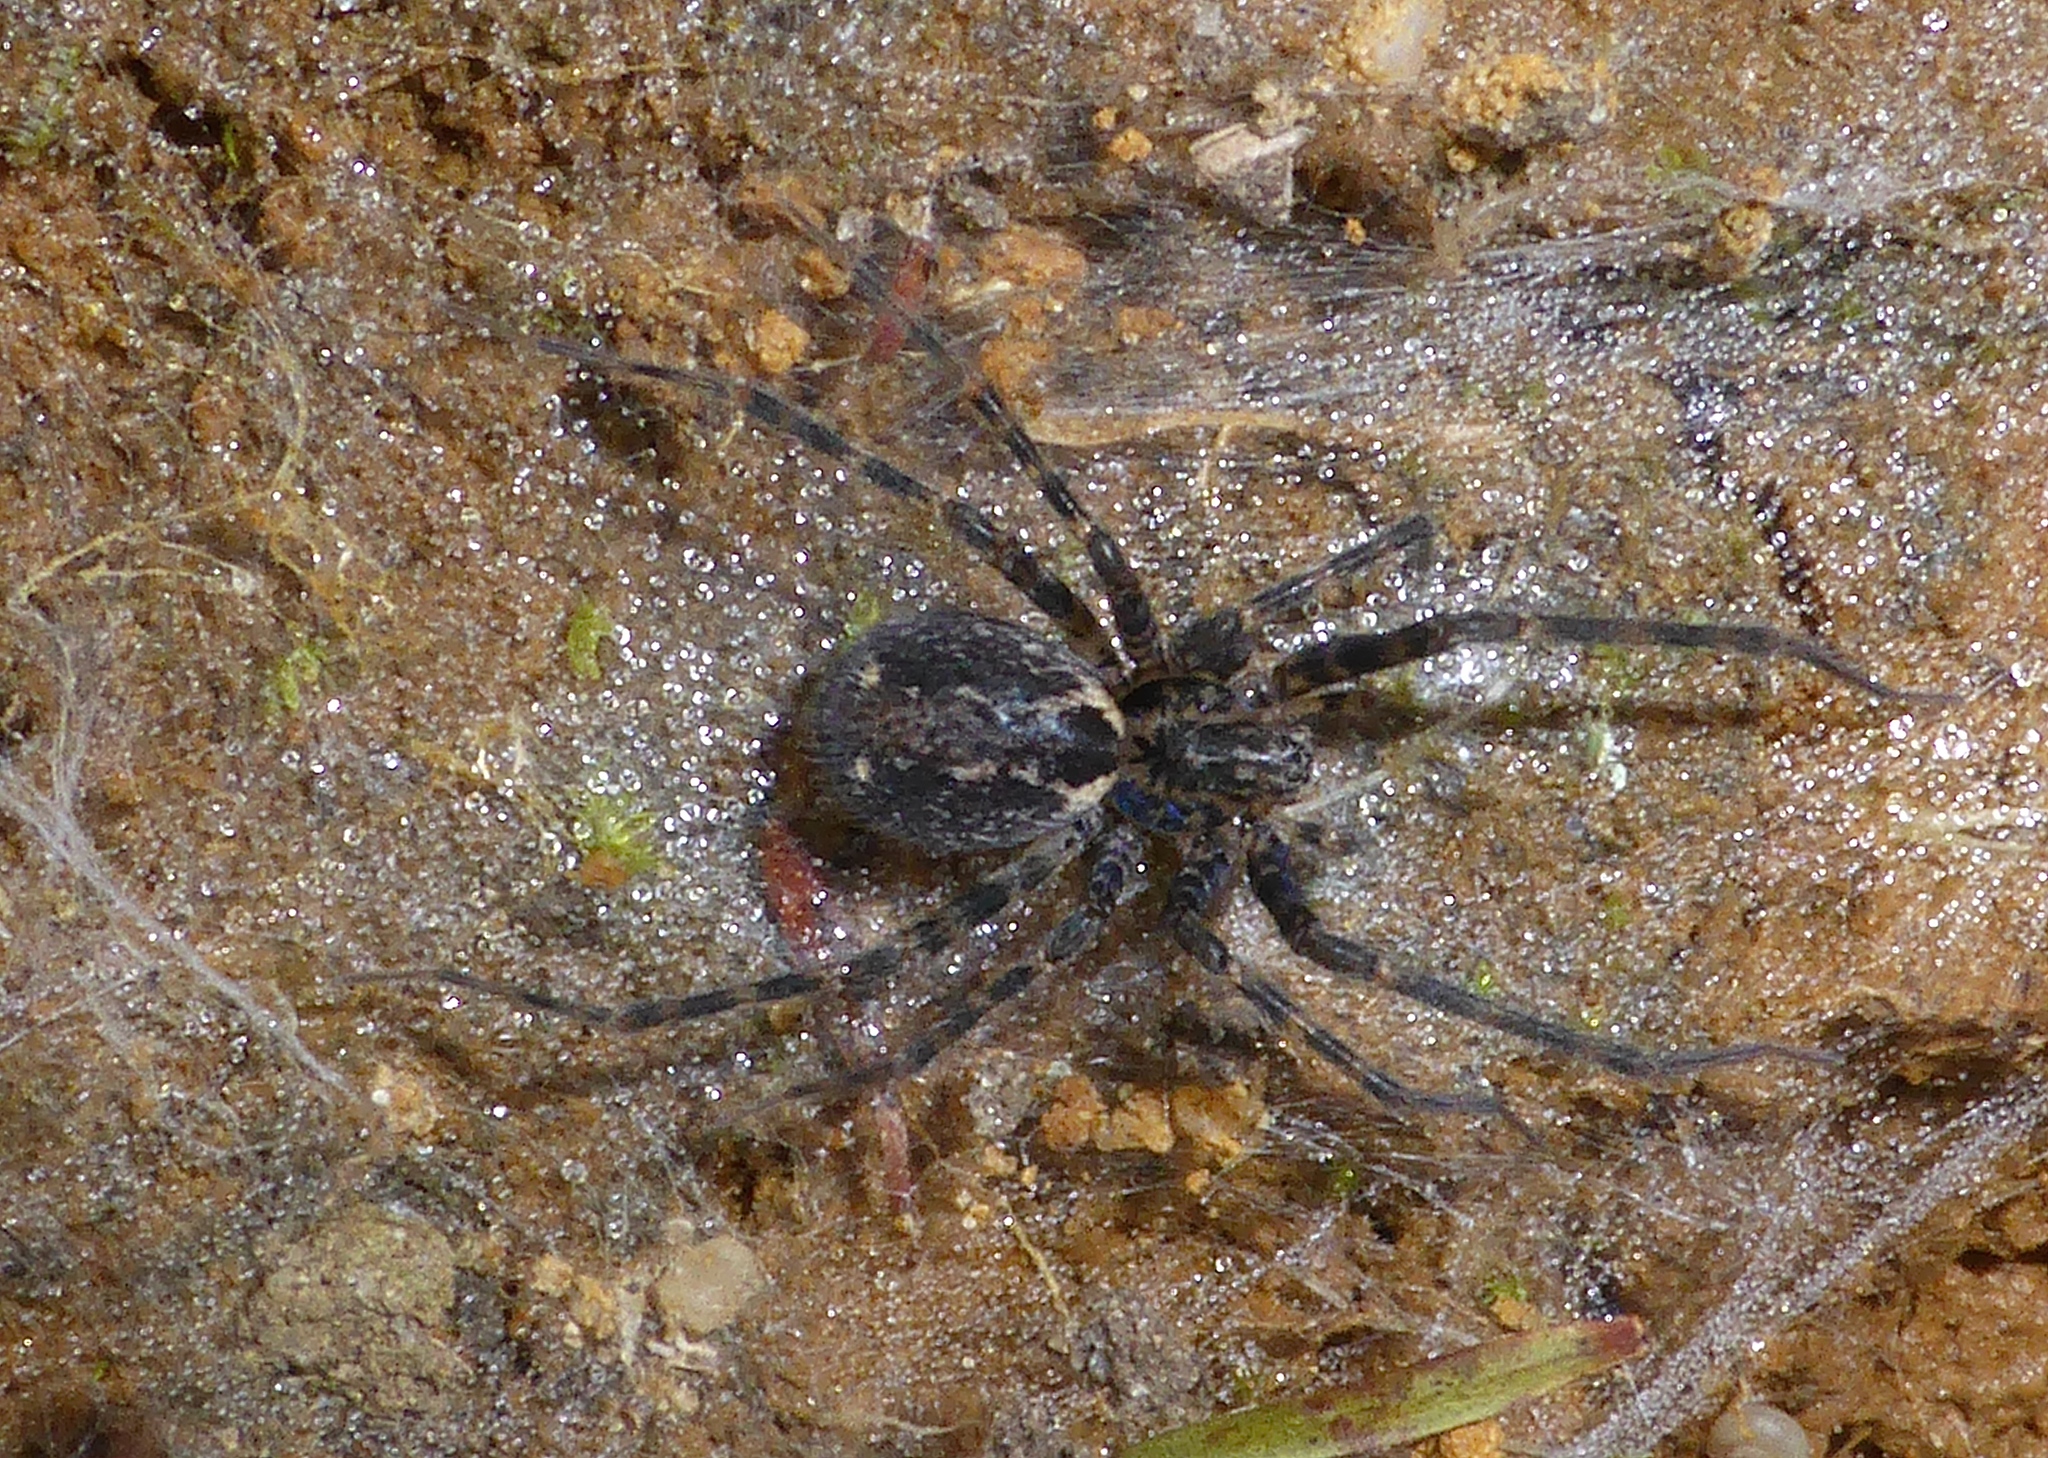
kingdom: Animalia
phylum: Arthropoda
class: Arachnida
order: Araneae
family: Stiphidiidae
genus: Stiphidion
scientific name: Stiphidion facetum
